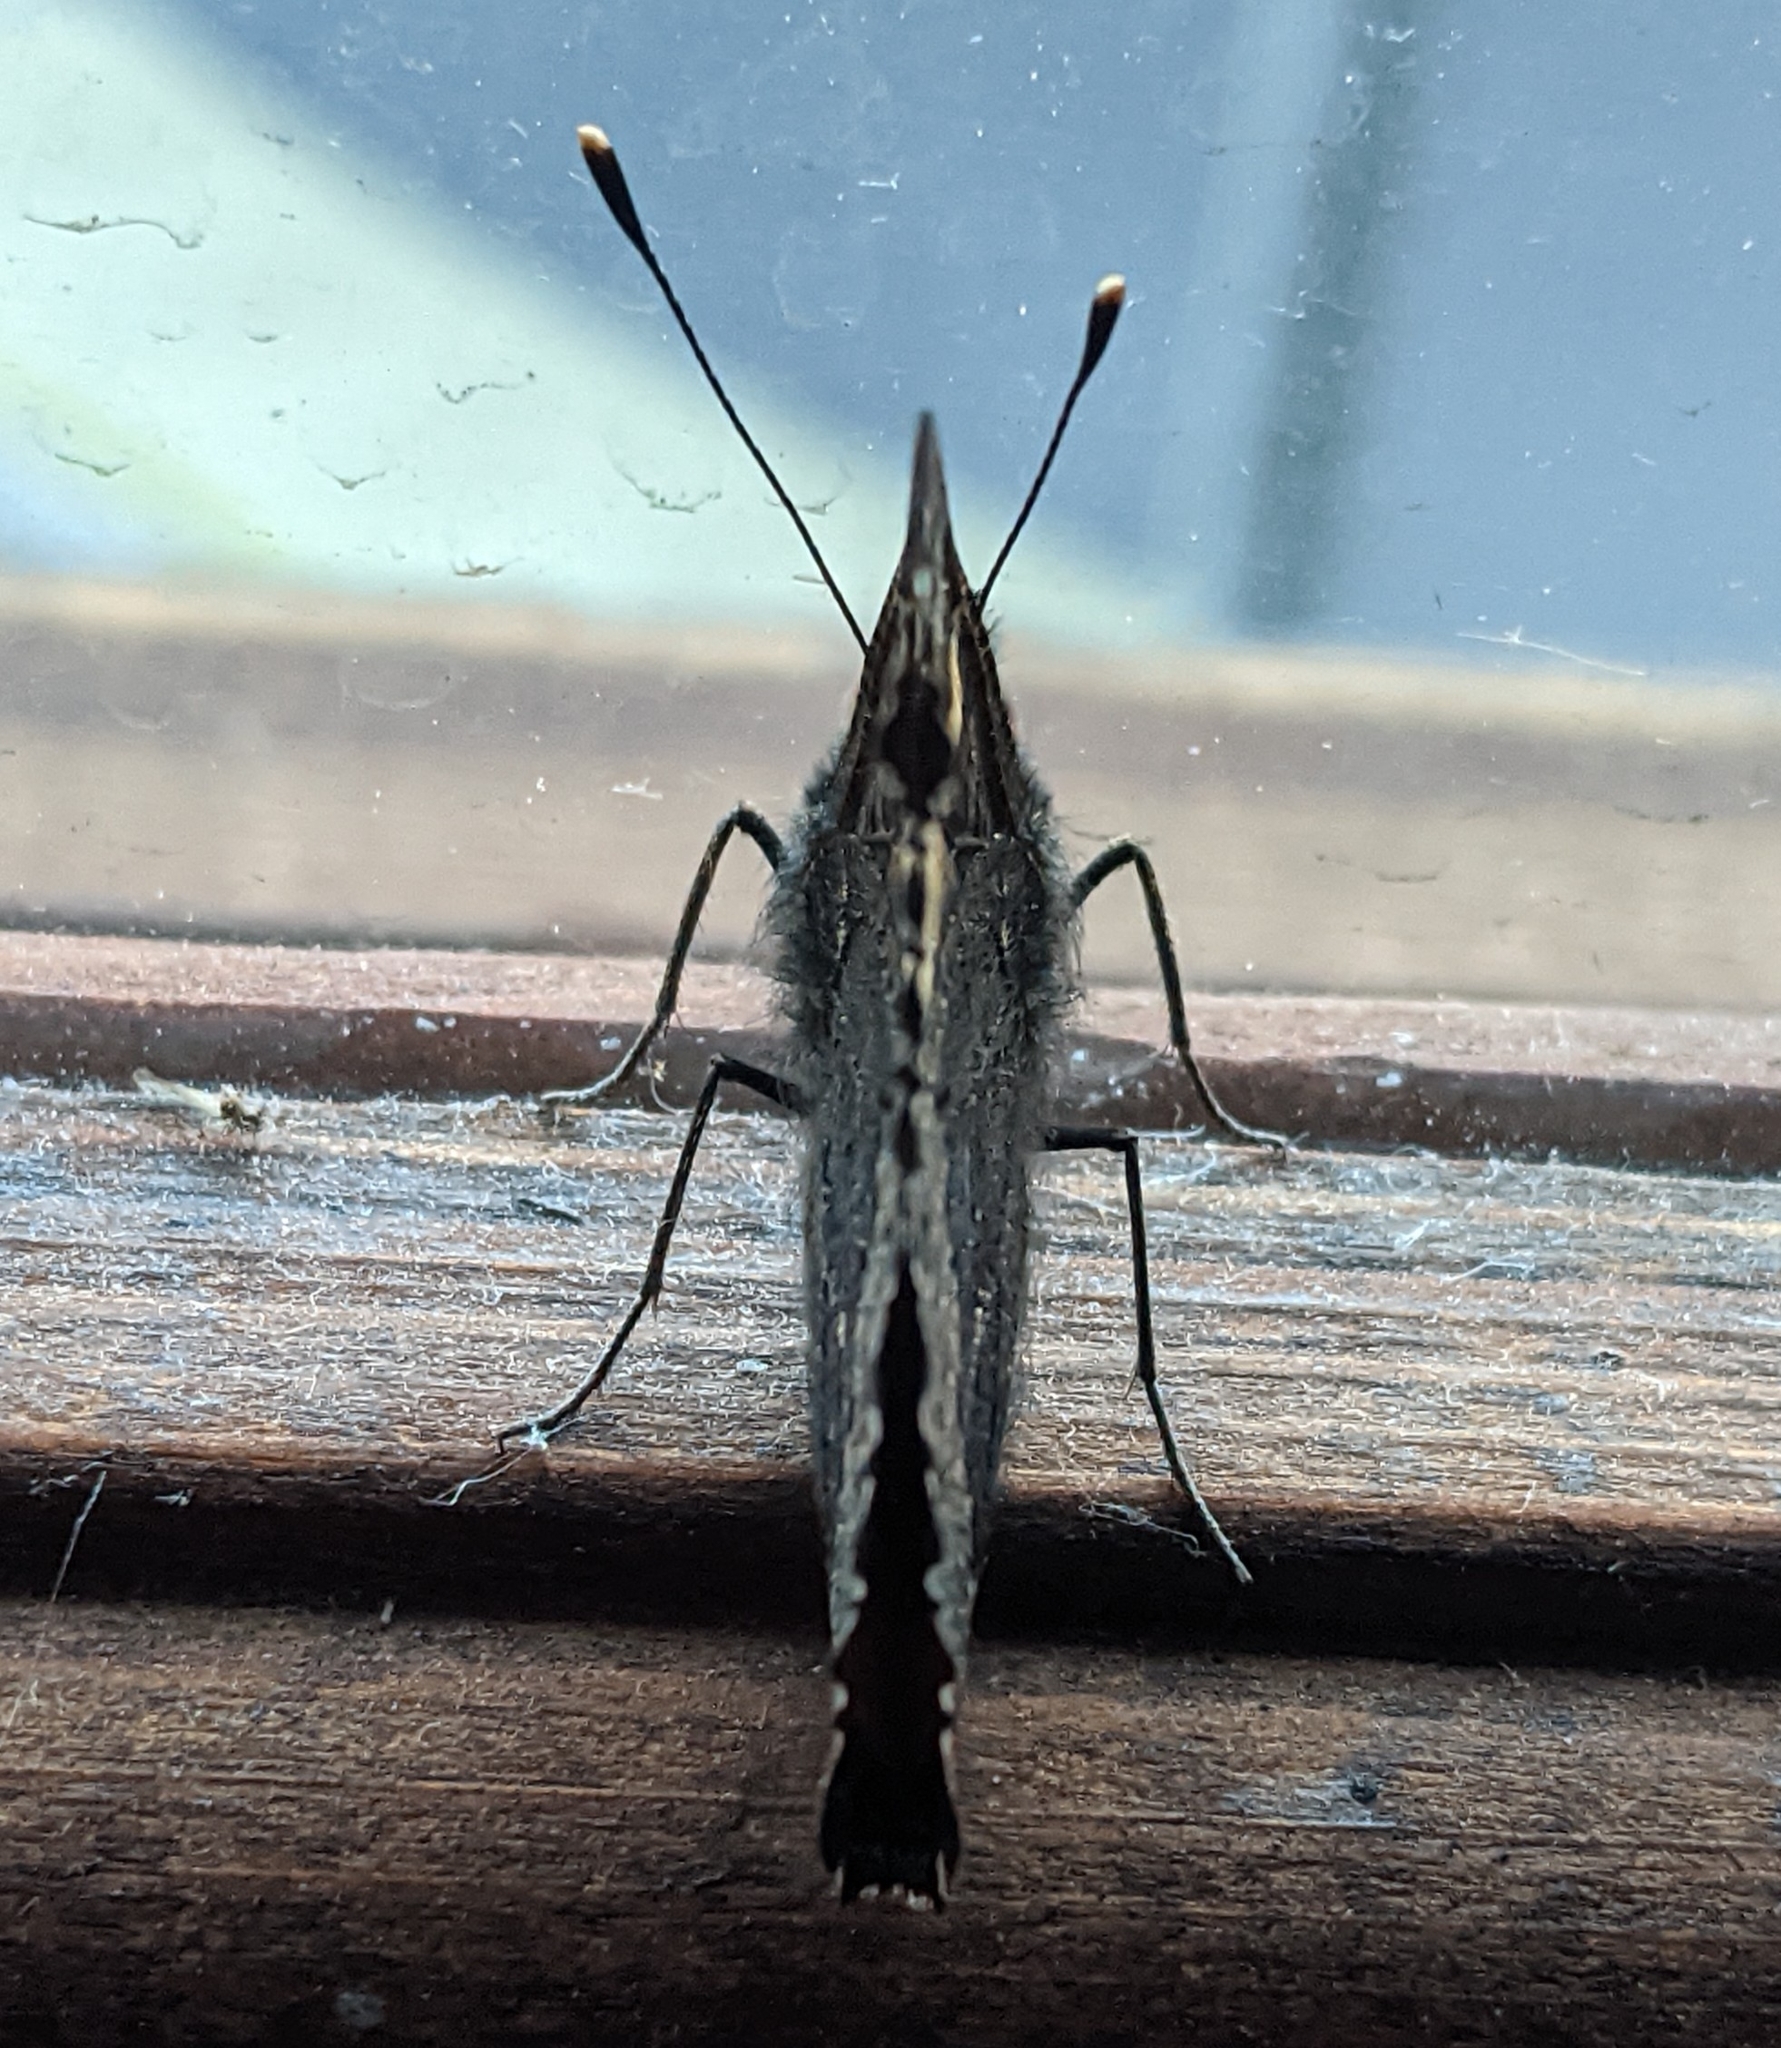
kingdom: Animalia
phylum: Arthropoda
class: Insecta
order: Lepidoptera
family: Nymphalidae
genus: Aglais
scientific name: Aglais urticae
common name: Small tortoiseshell
